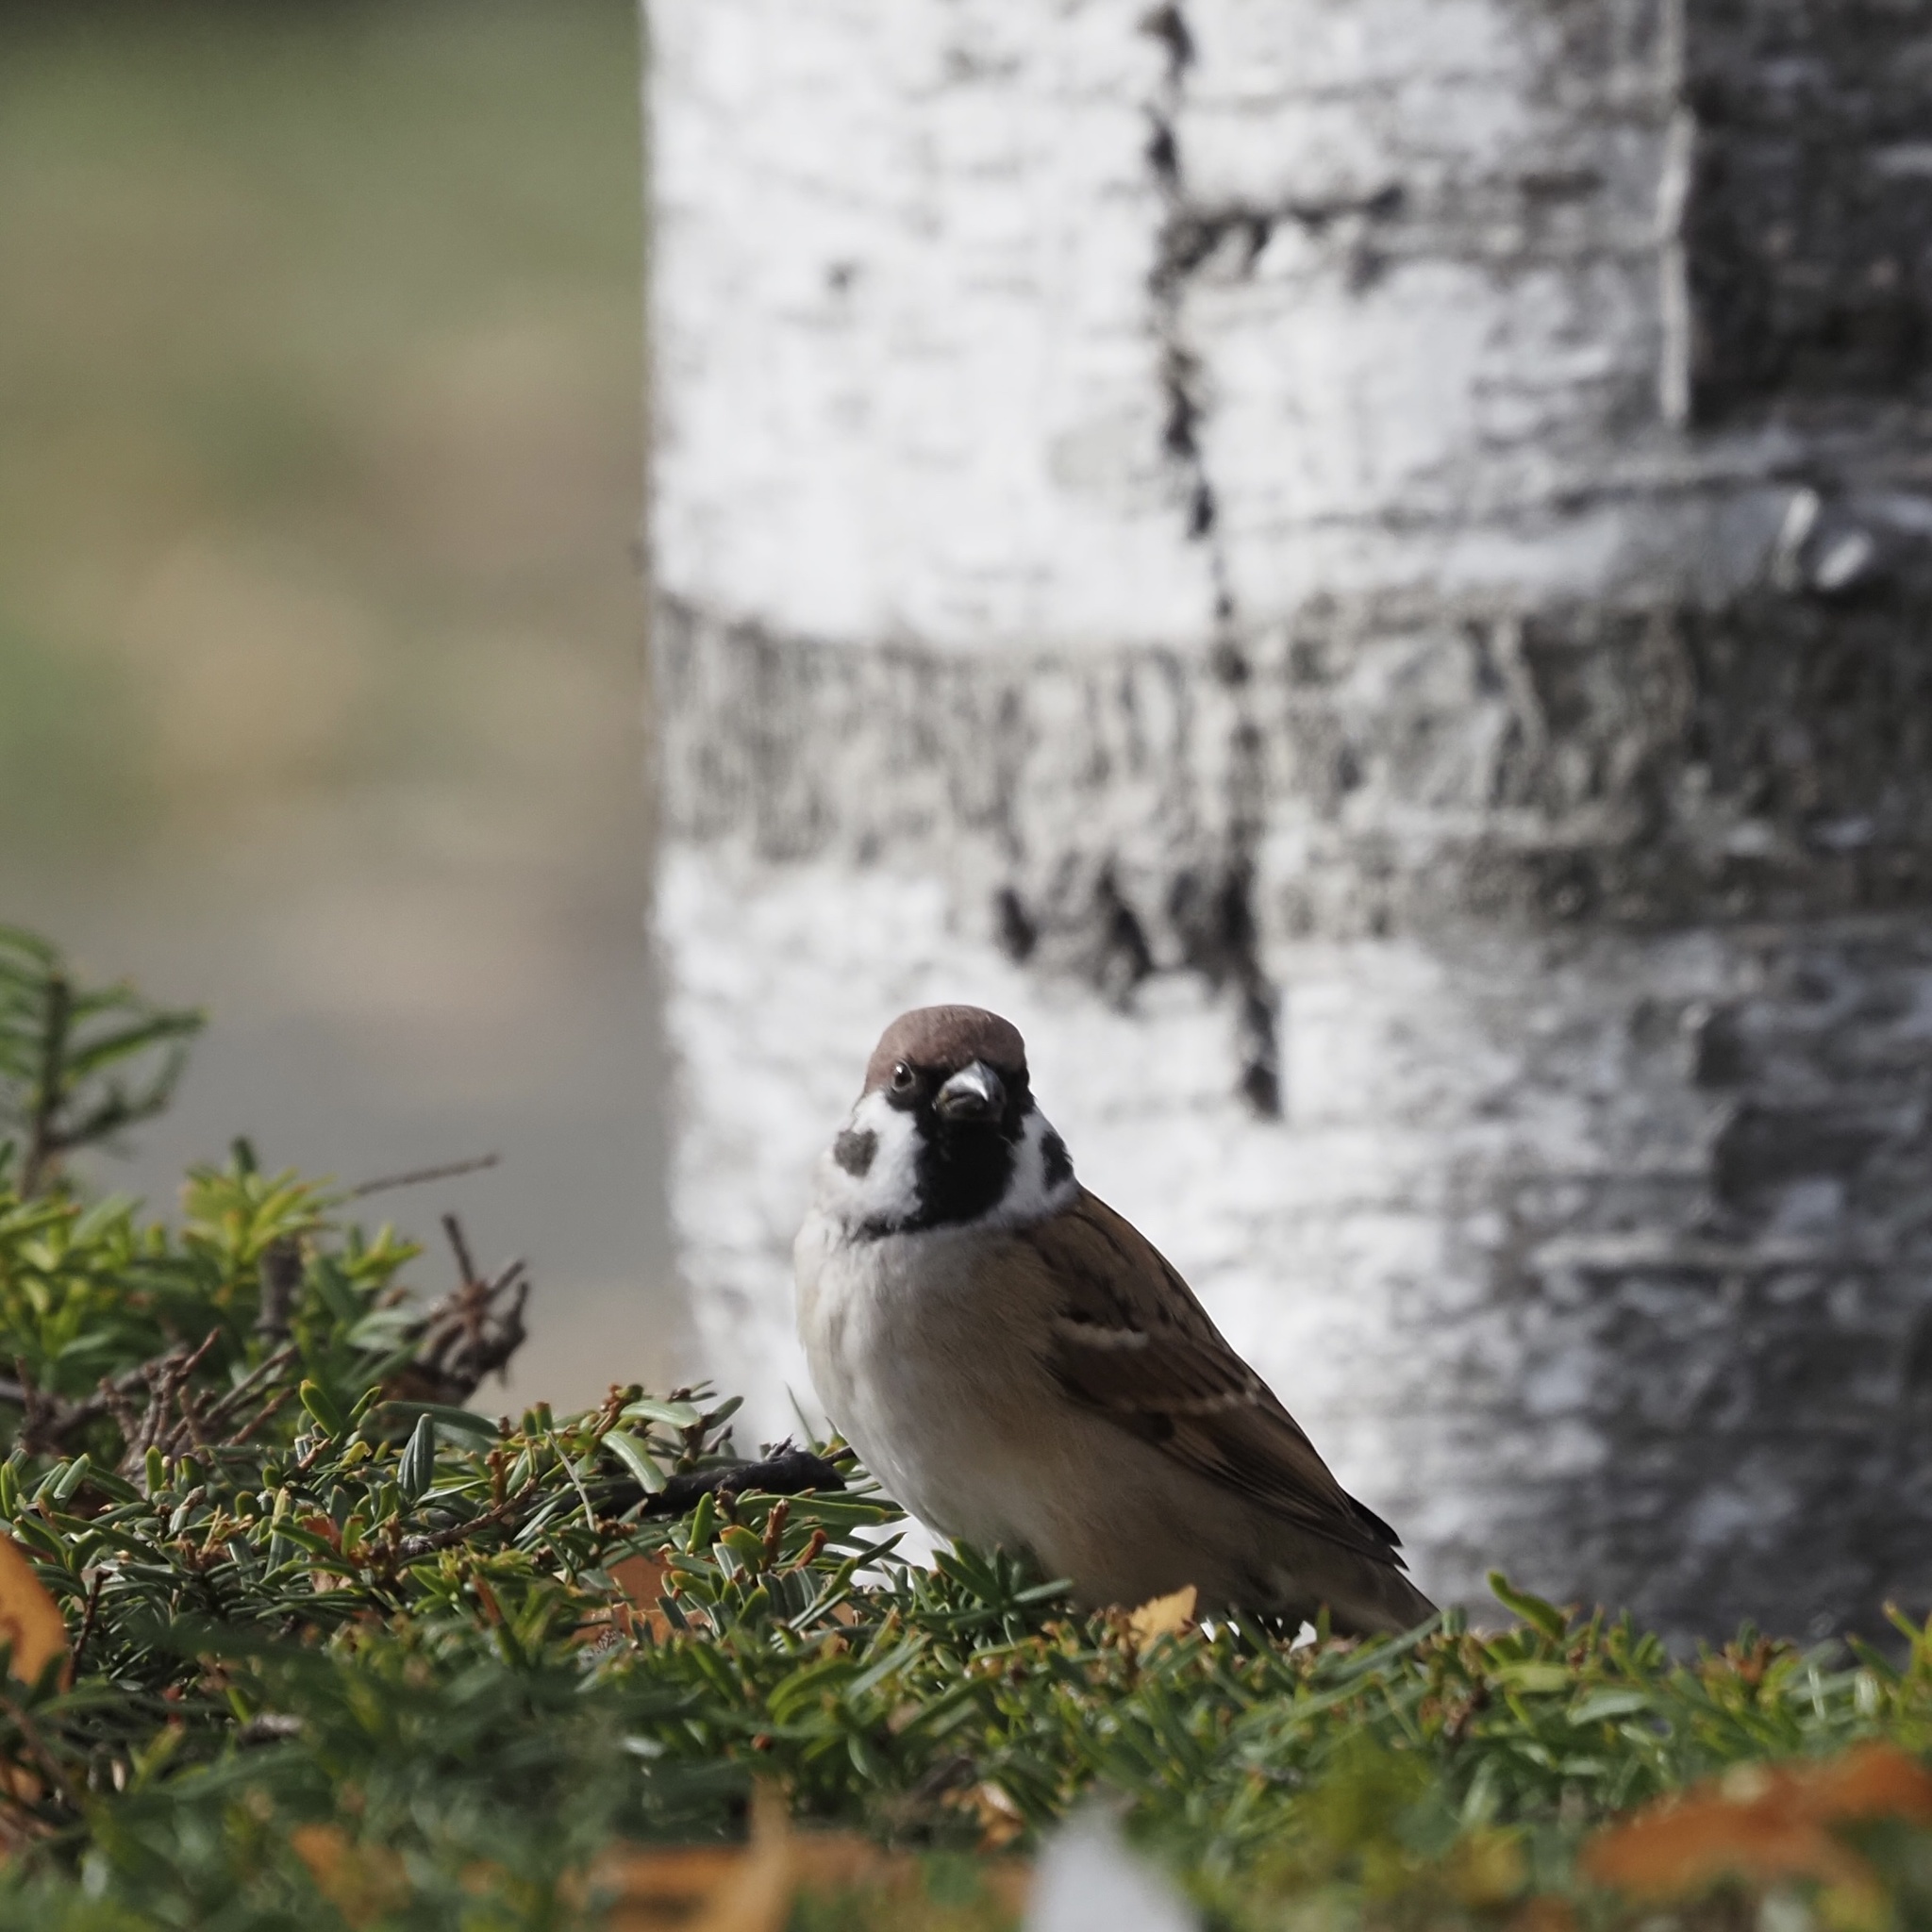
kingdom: Animalia
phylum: Chordata
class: Aves
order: Passeriformes
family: Passeridae
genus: Passer
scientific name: Passer montanus
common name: Eurasian tree sparrow
